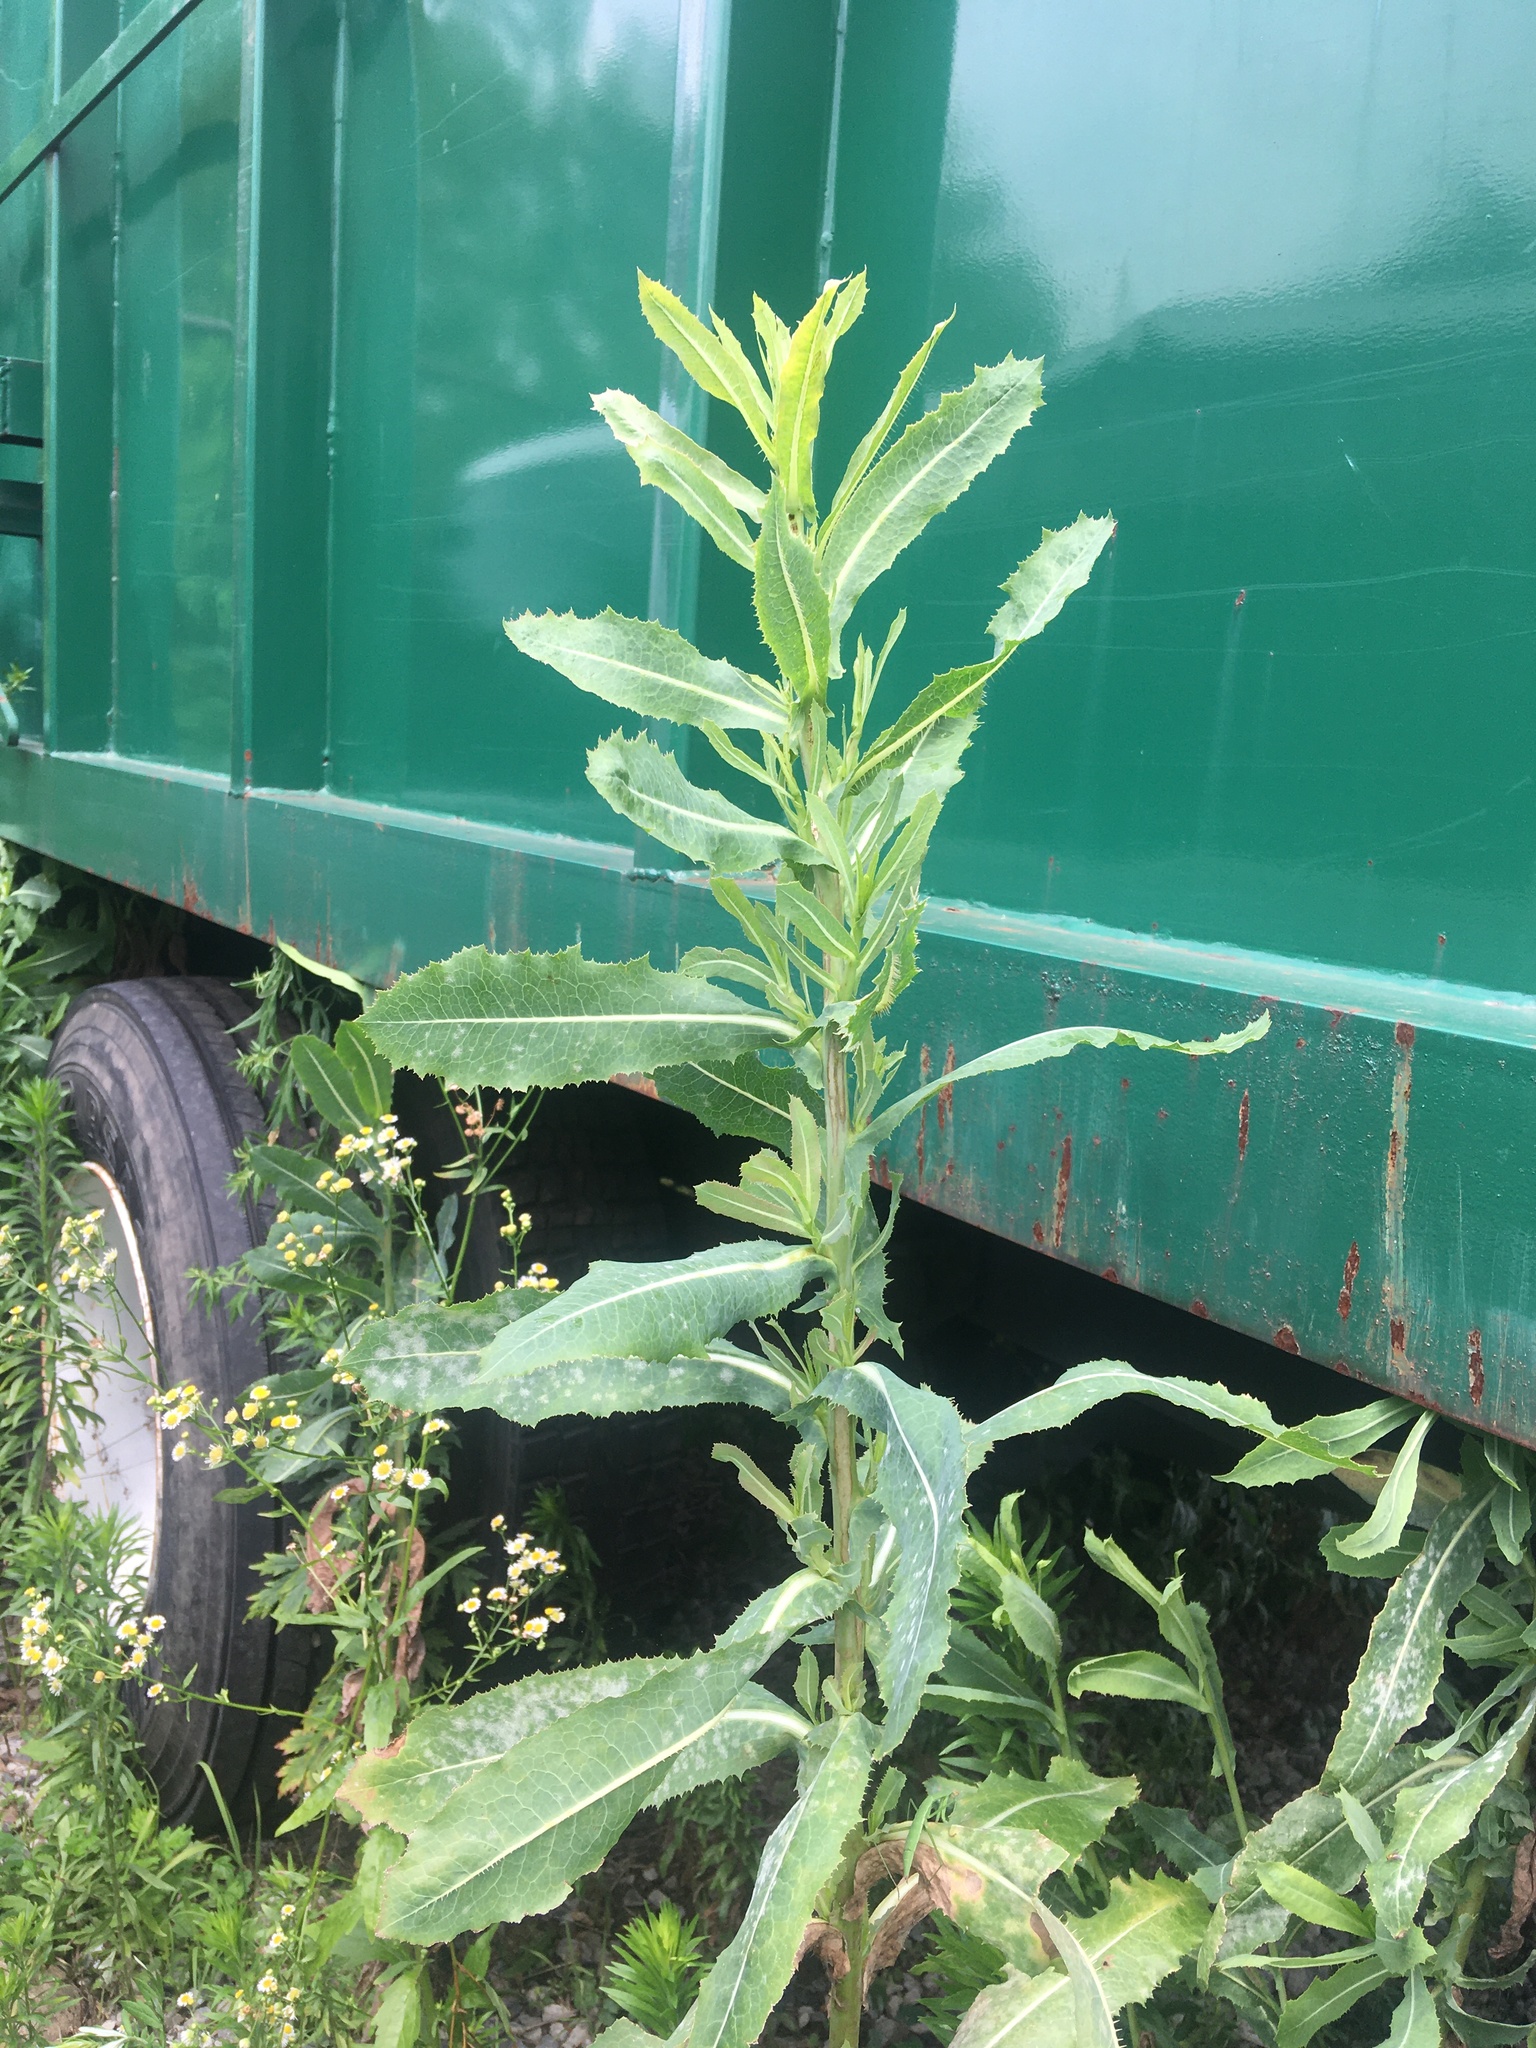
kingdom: Plantae
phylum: Tracheophyta
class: Magnoliopsida
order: Asterales
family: Asteraceae
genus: Lactuca
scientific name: Lactuca serriola
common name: Prickly lettuce
